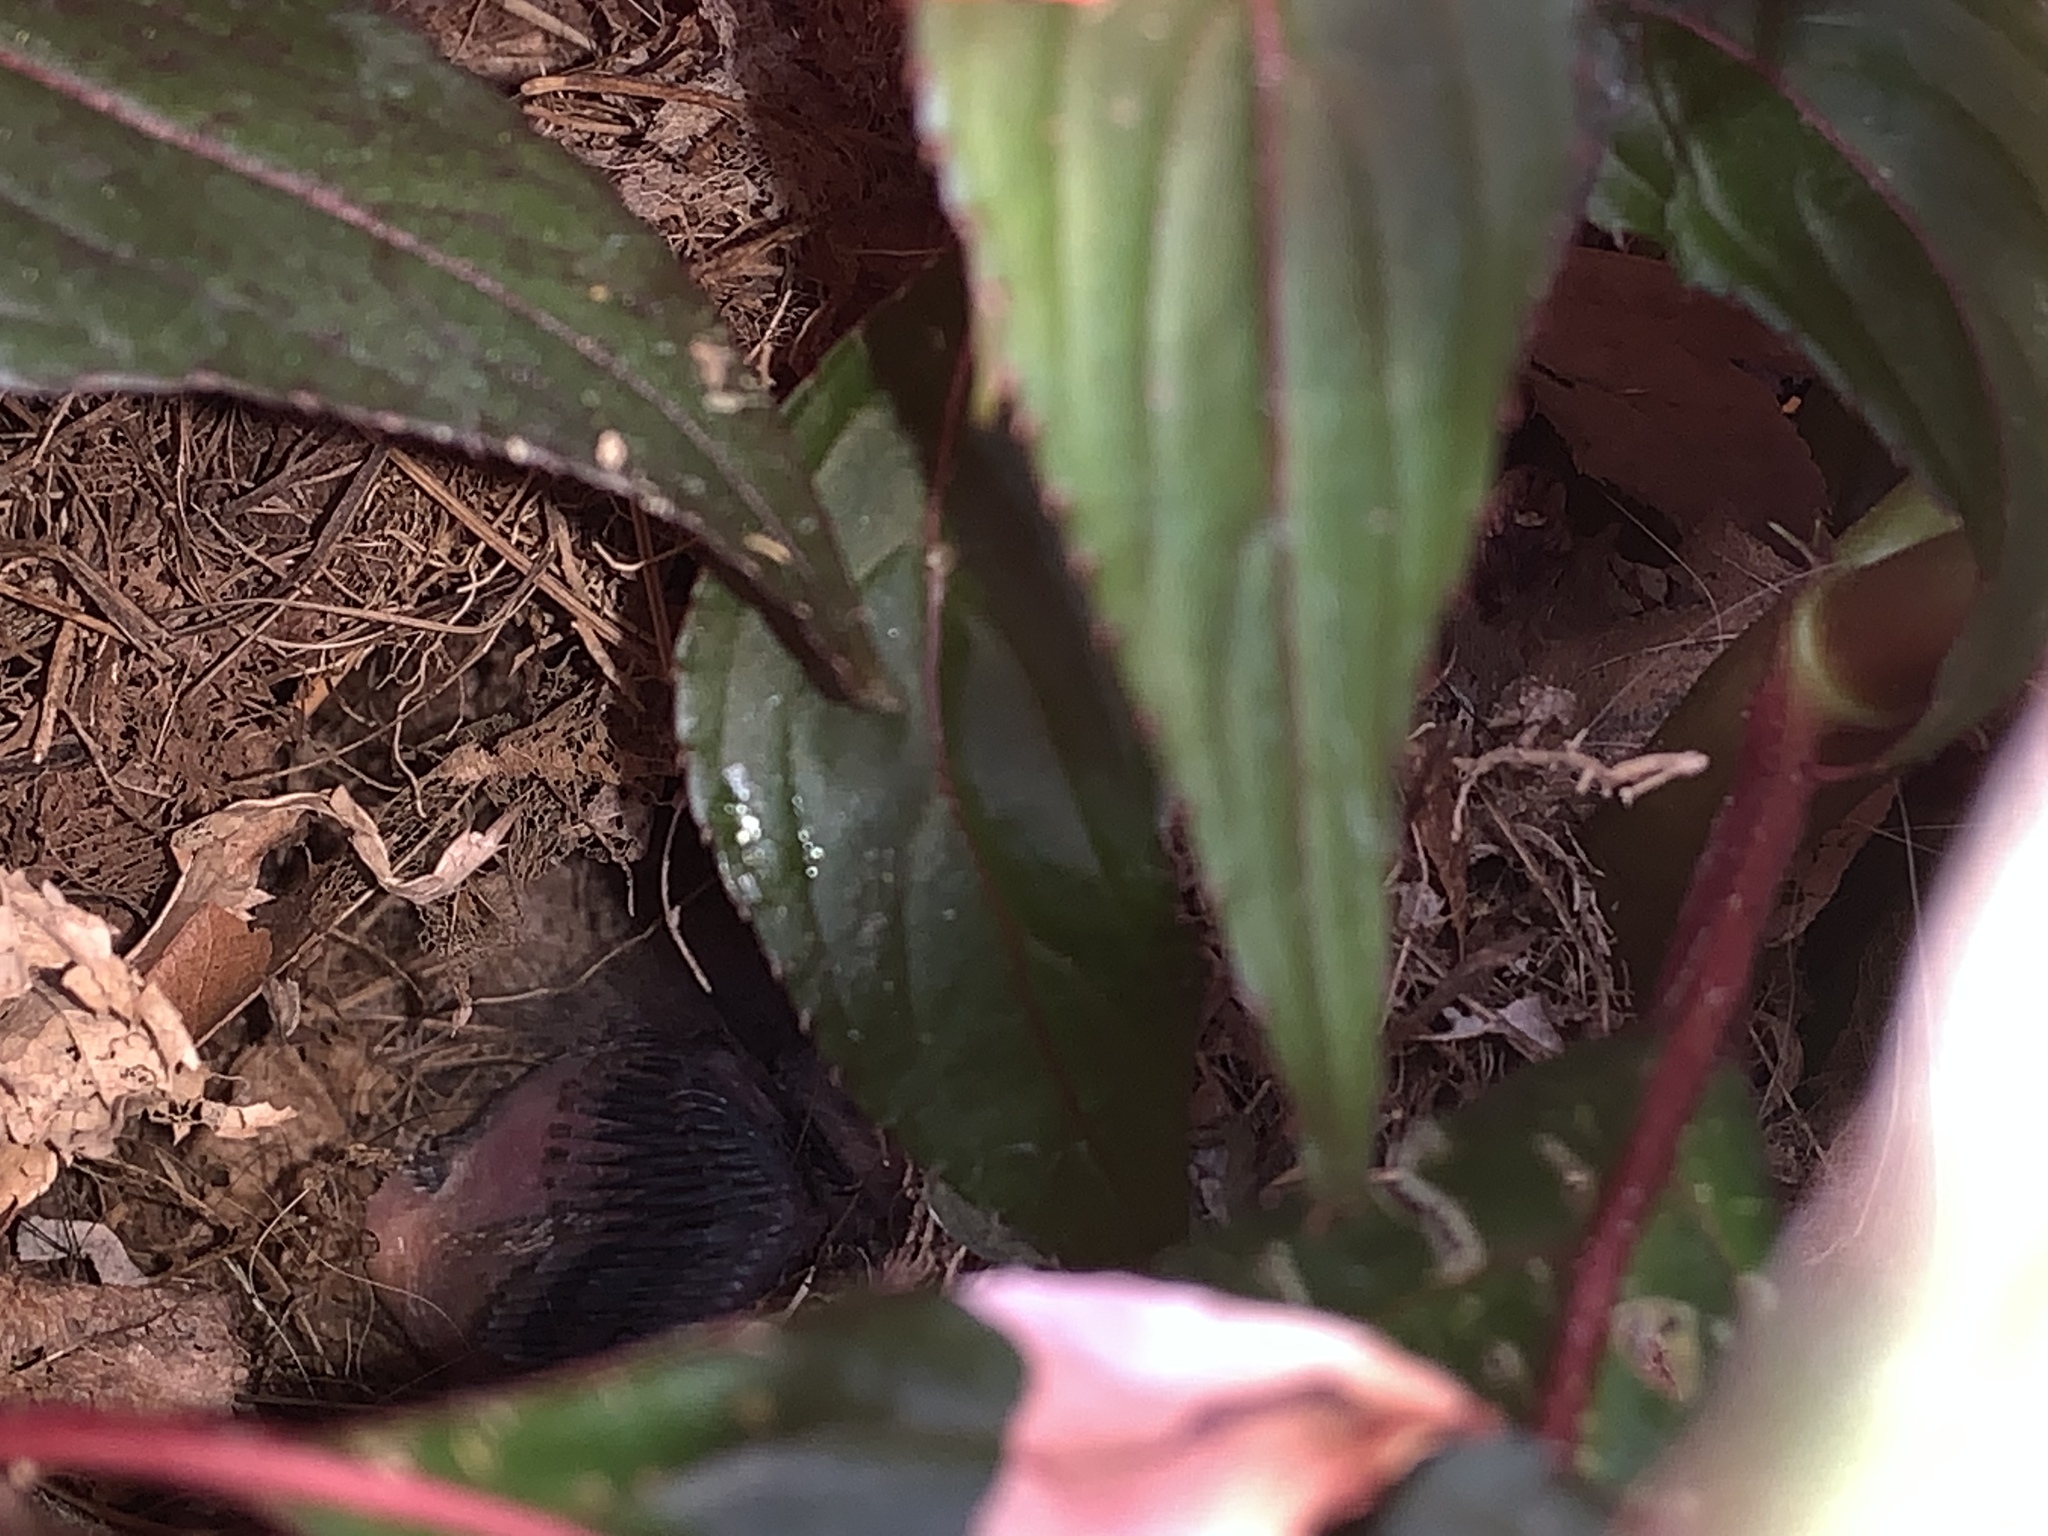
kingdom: Animalia
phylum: Chordata
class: Aves
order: Passeriformes
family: Troglodytidae
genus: Thryothorus
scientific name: Thryothorus ludovicianus
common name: Carolina wren
